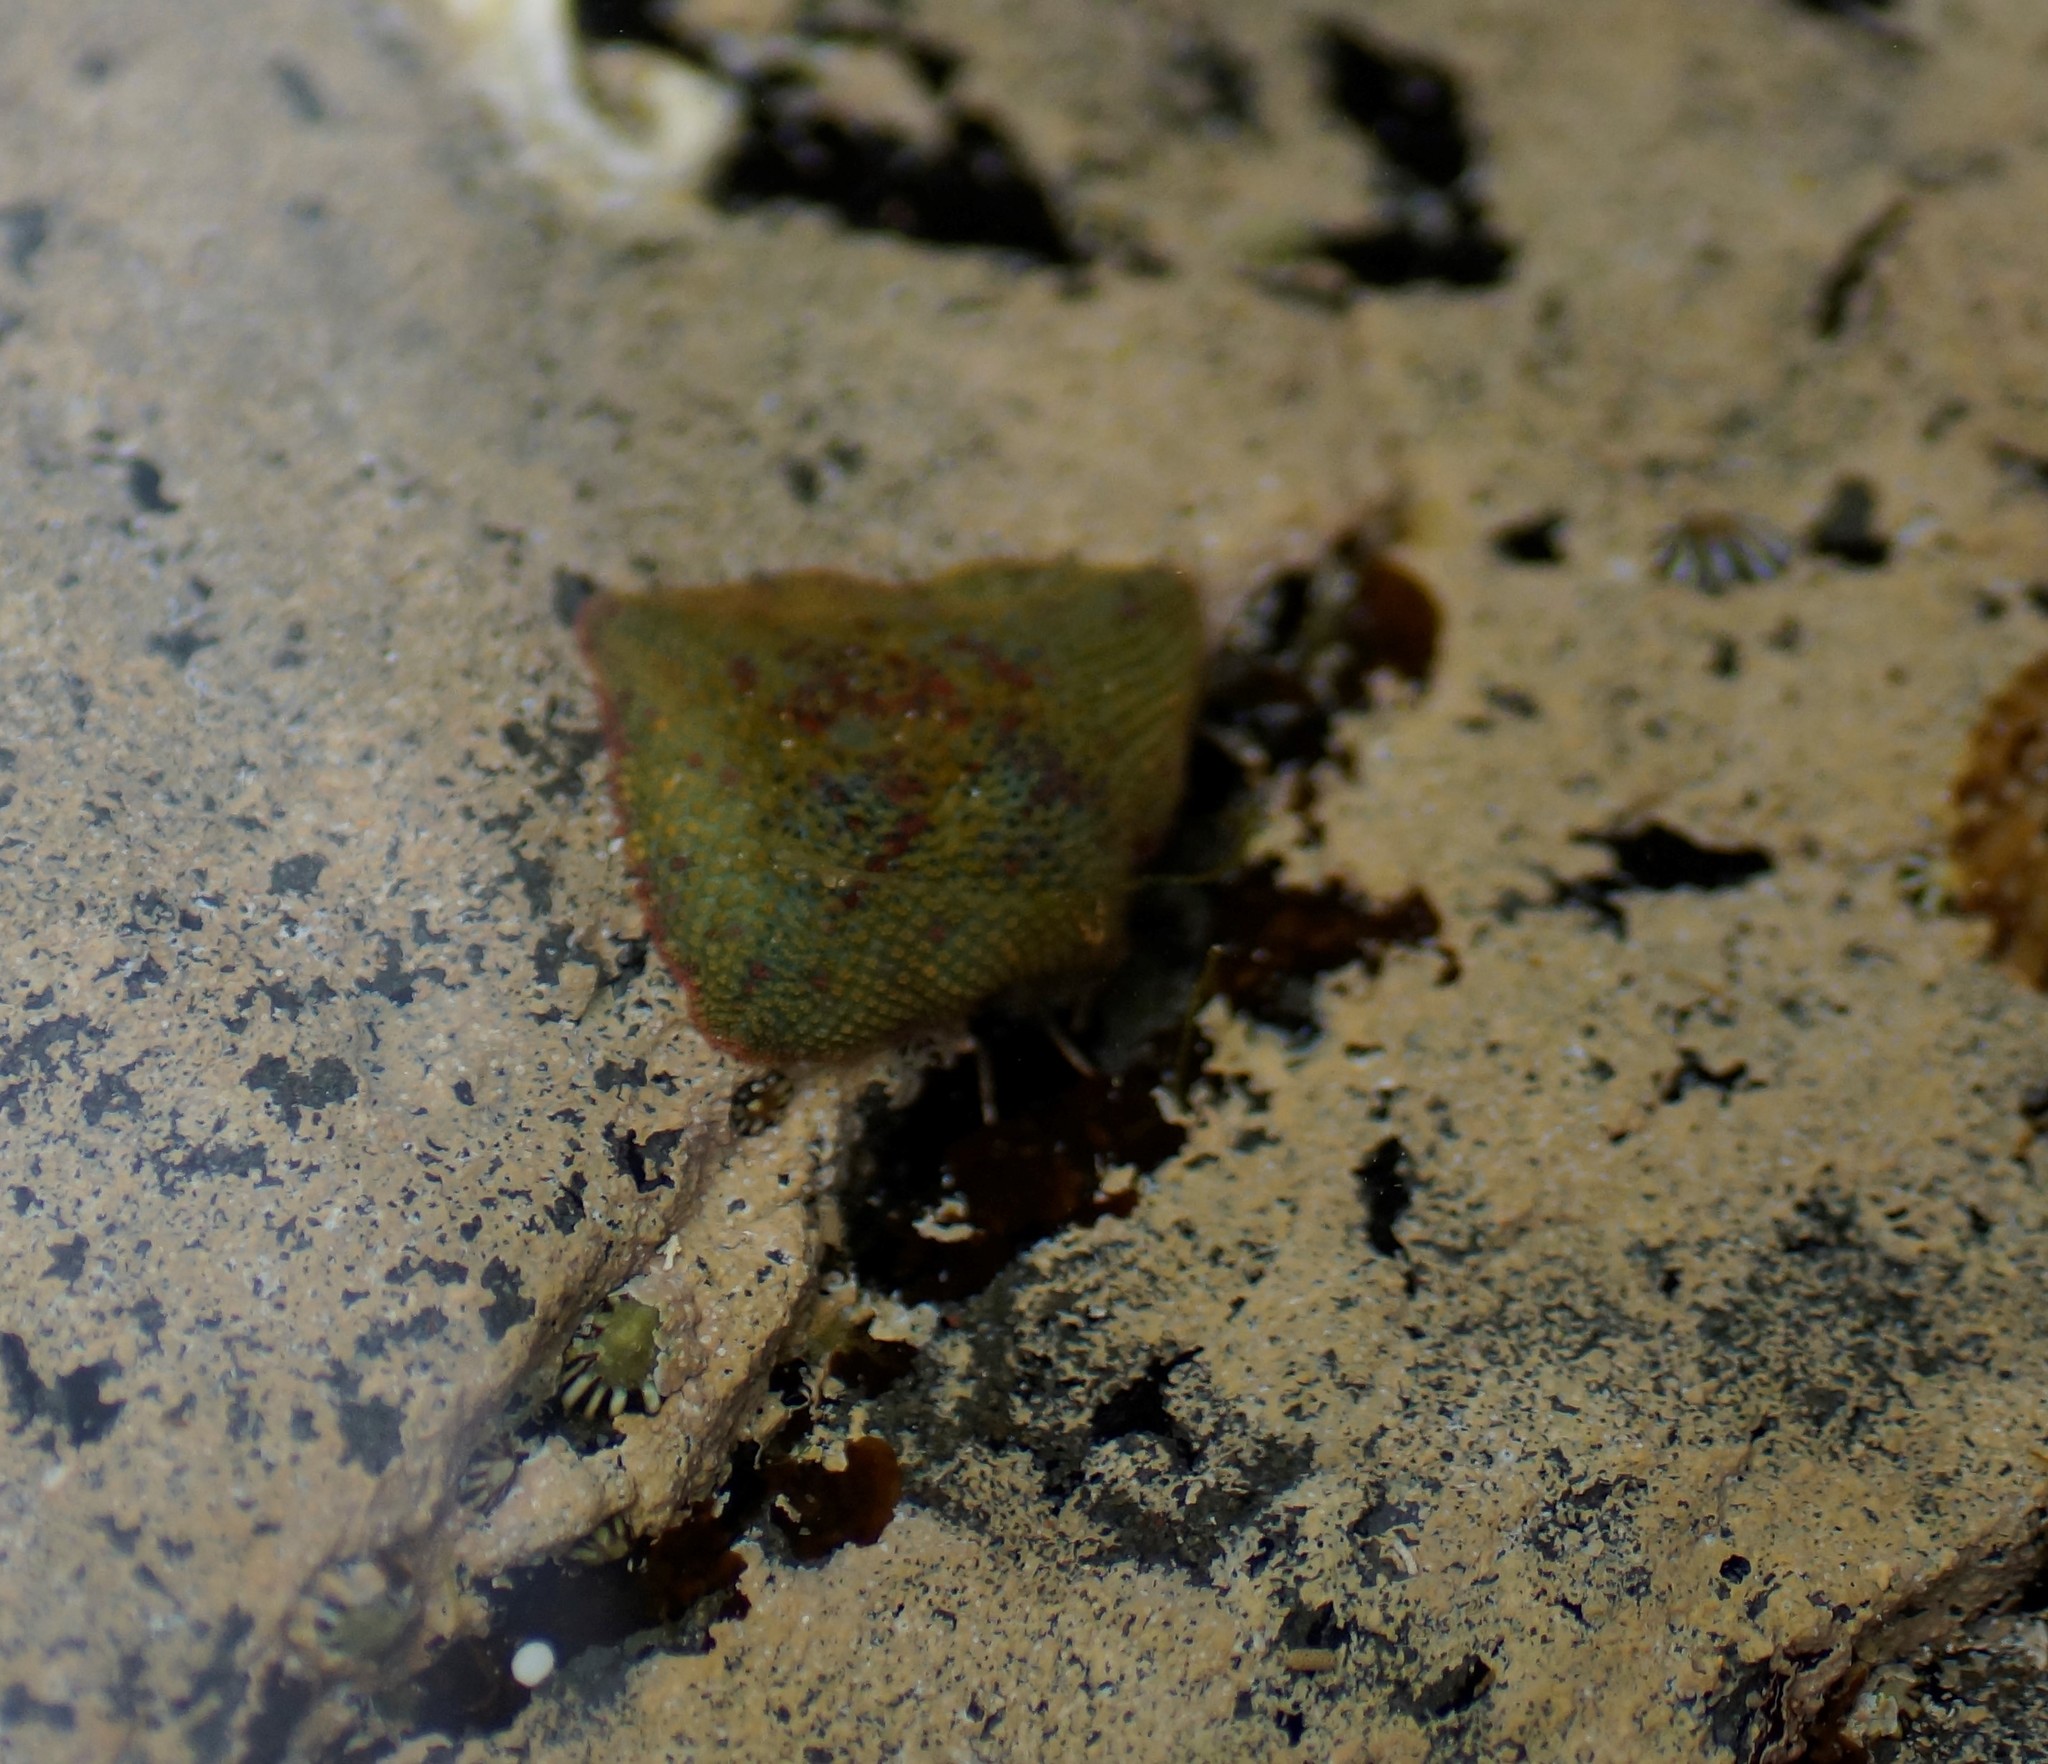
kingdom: Animalia
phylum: Echinodermata
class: Asteroidea
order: Valvatida
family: Asterinidae
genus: Parvulastra
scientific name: Parvulastra exigua
